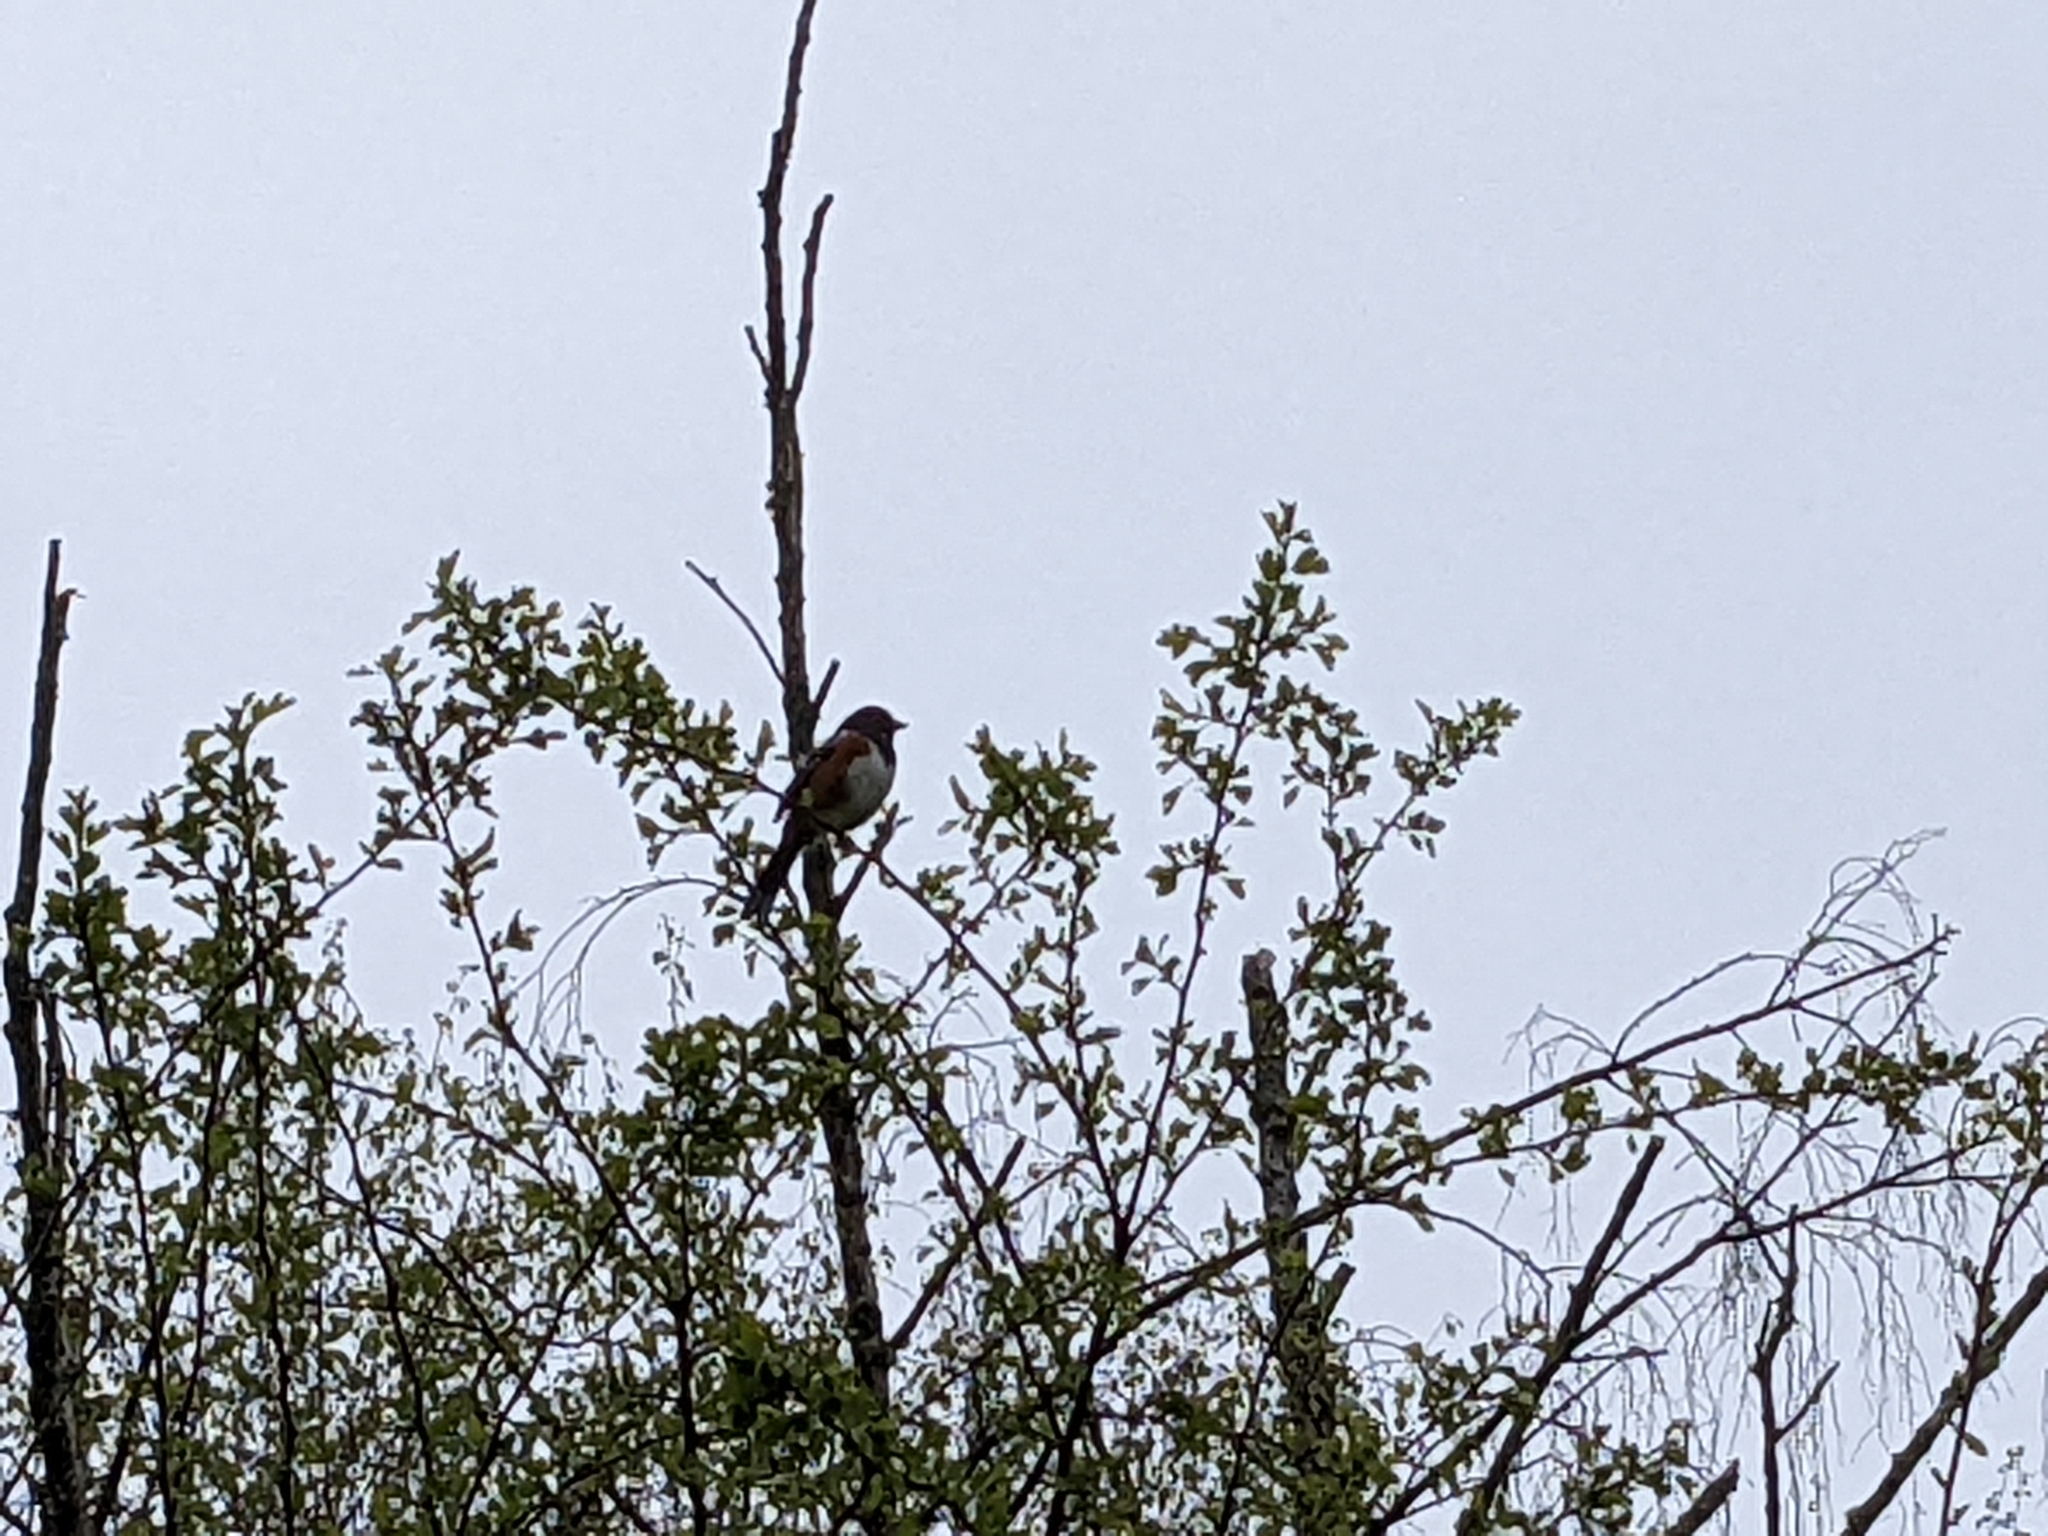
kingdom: Animalia
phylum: Chordata
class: Aves
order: Passeriformes
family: Passerellidae
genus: Pipilo
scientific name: Pipilo maculatus
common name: Spotted towhee
